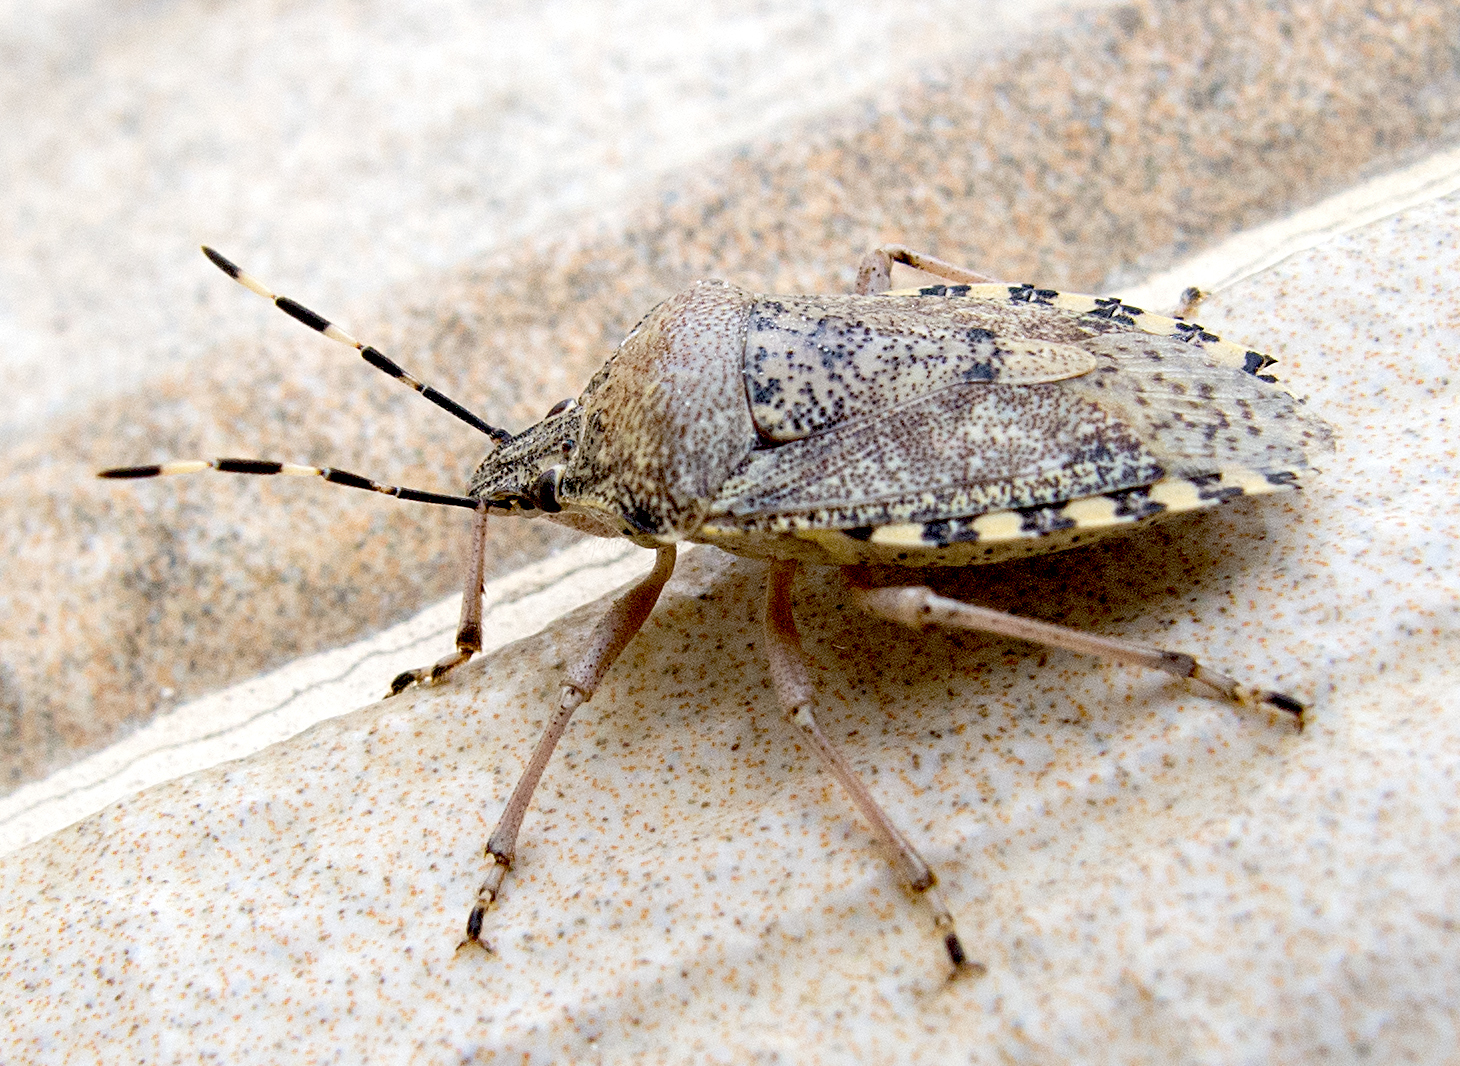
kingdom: Animalia
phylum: Arthropoda
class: Insecta
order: Hemiptera
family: Pentatomidae
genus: Rhaphigaster
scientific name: Rhaphigaster nebulosa
